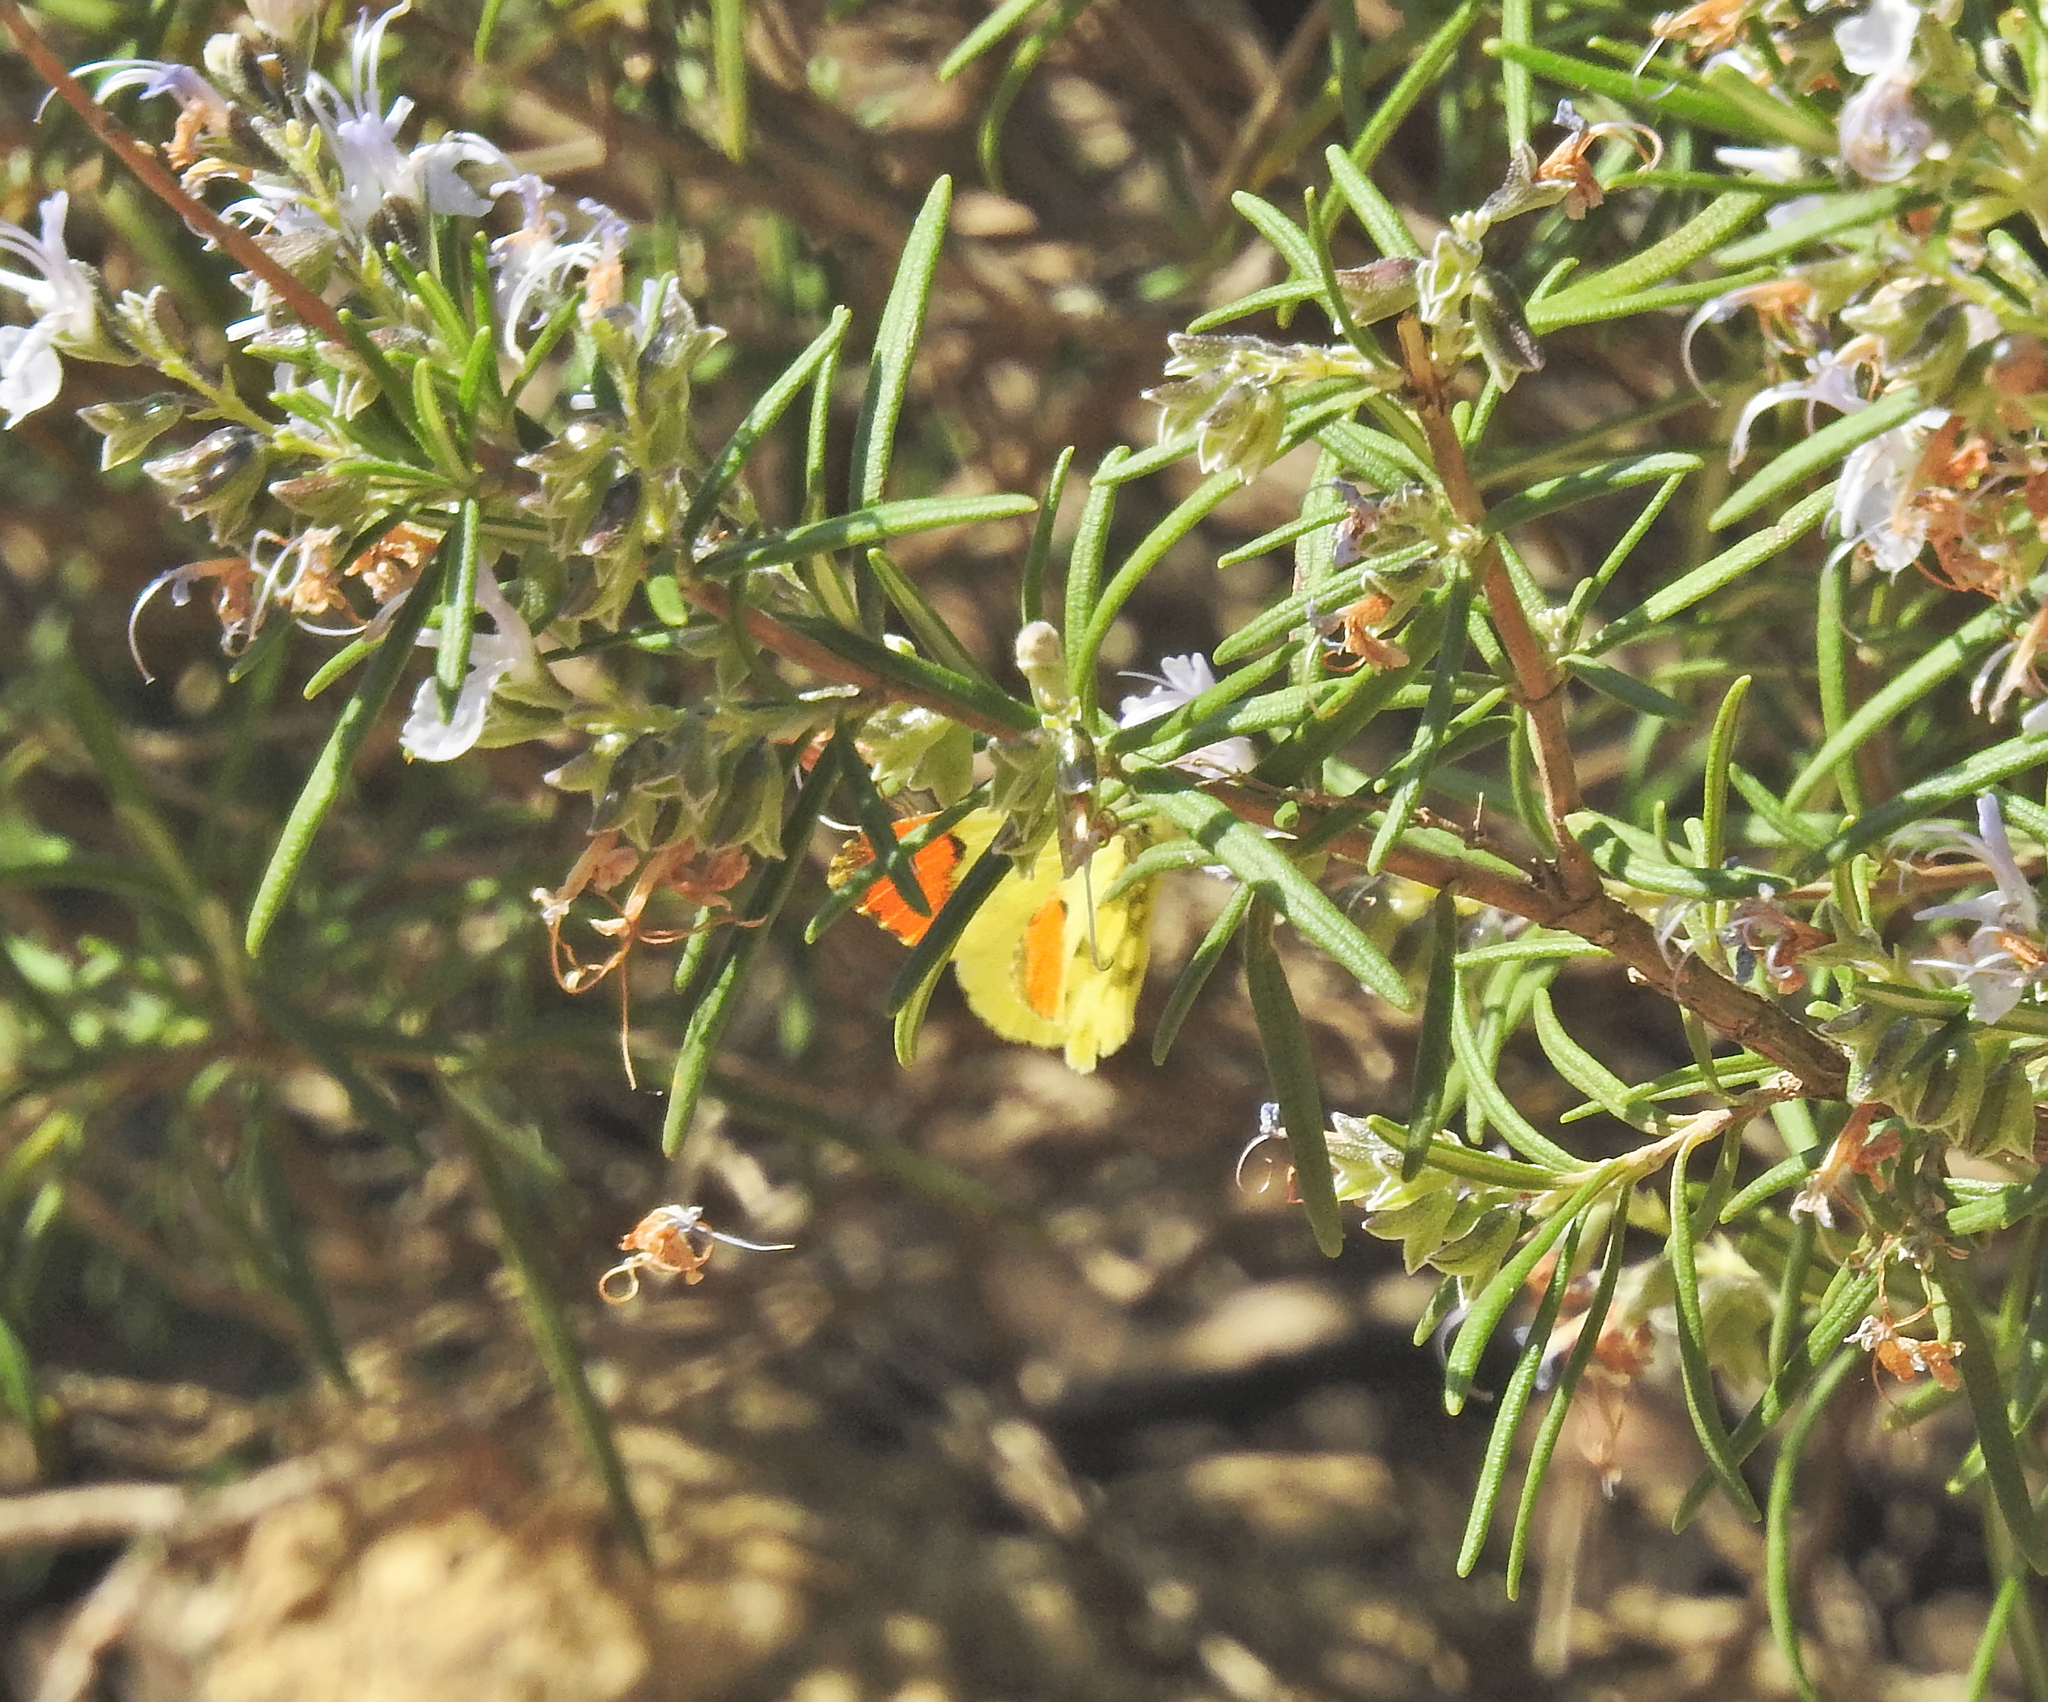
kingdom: Animalia
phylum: Arthropoda
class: Insecta
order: Lepidoptera
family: Pieridae
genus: Anthocharis
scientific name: Anthocharis euphenoides
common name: Provence orange-tip
